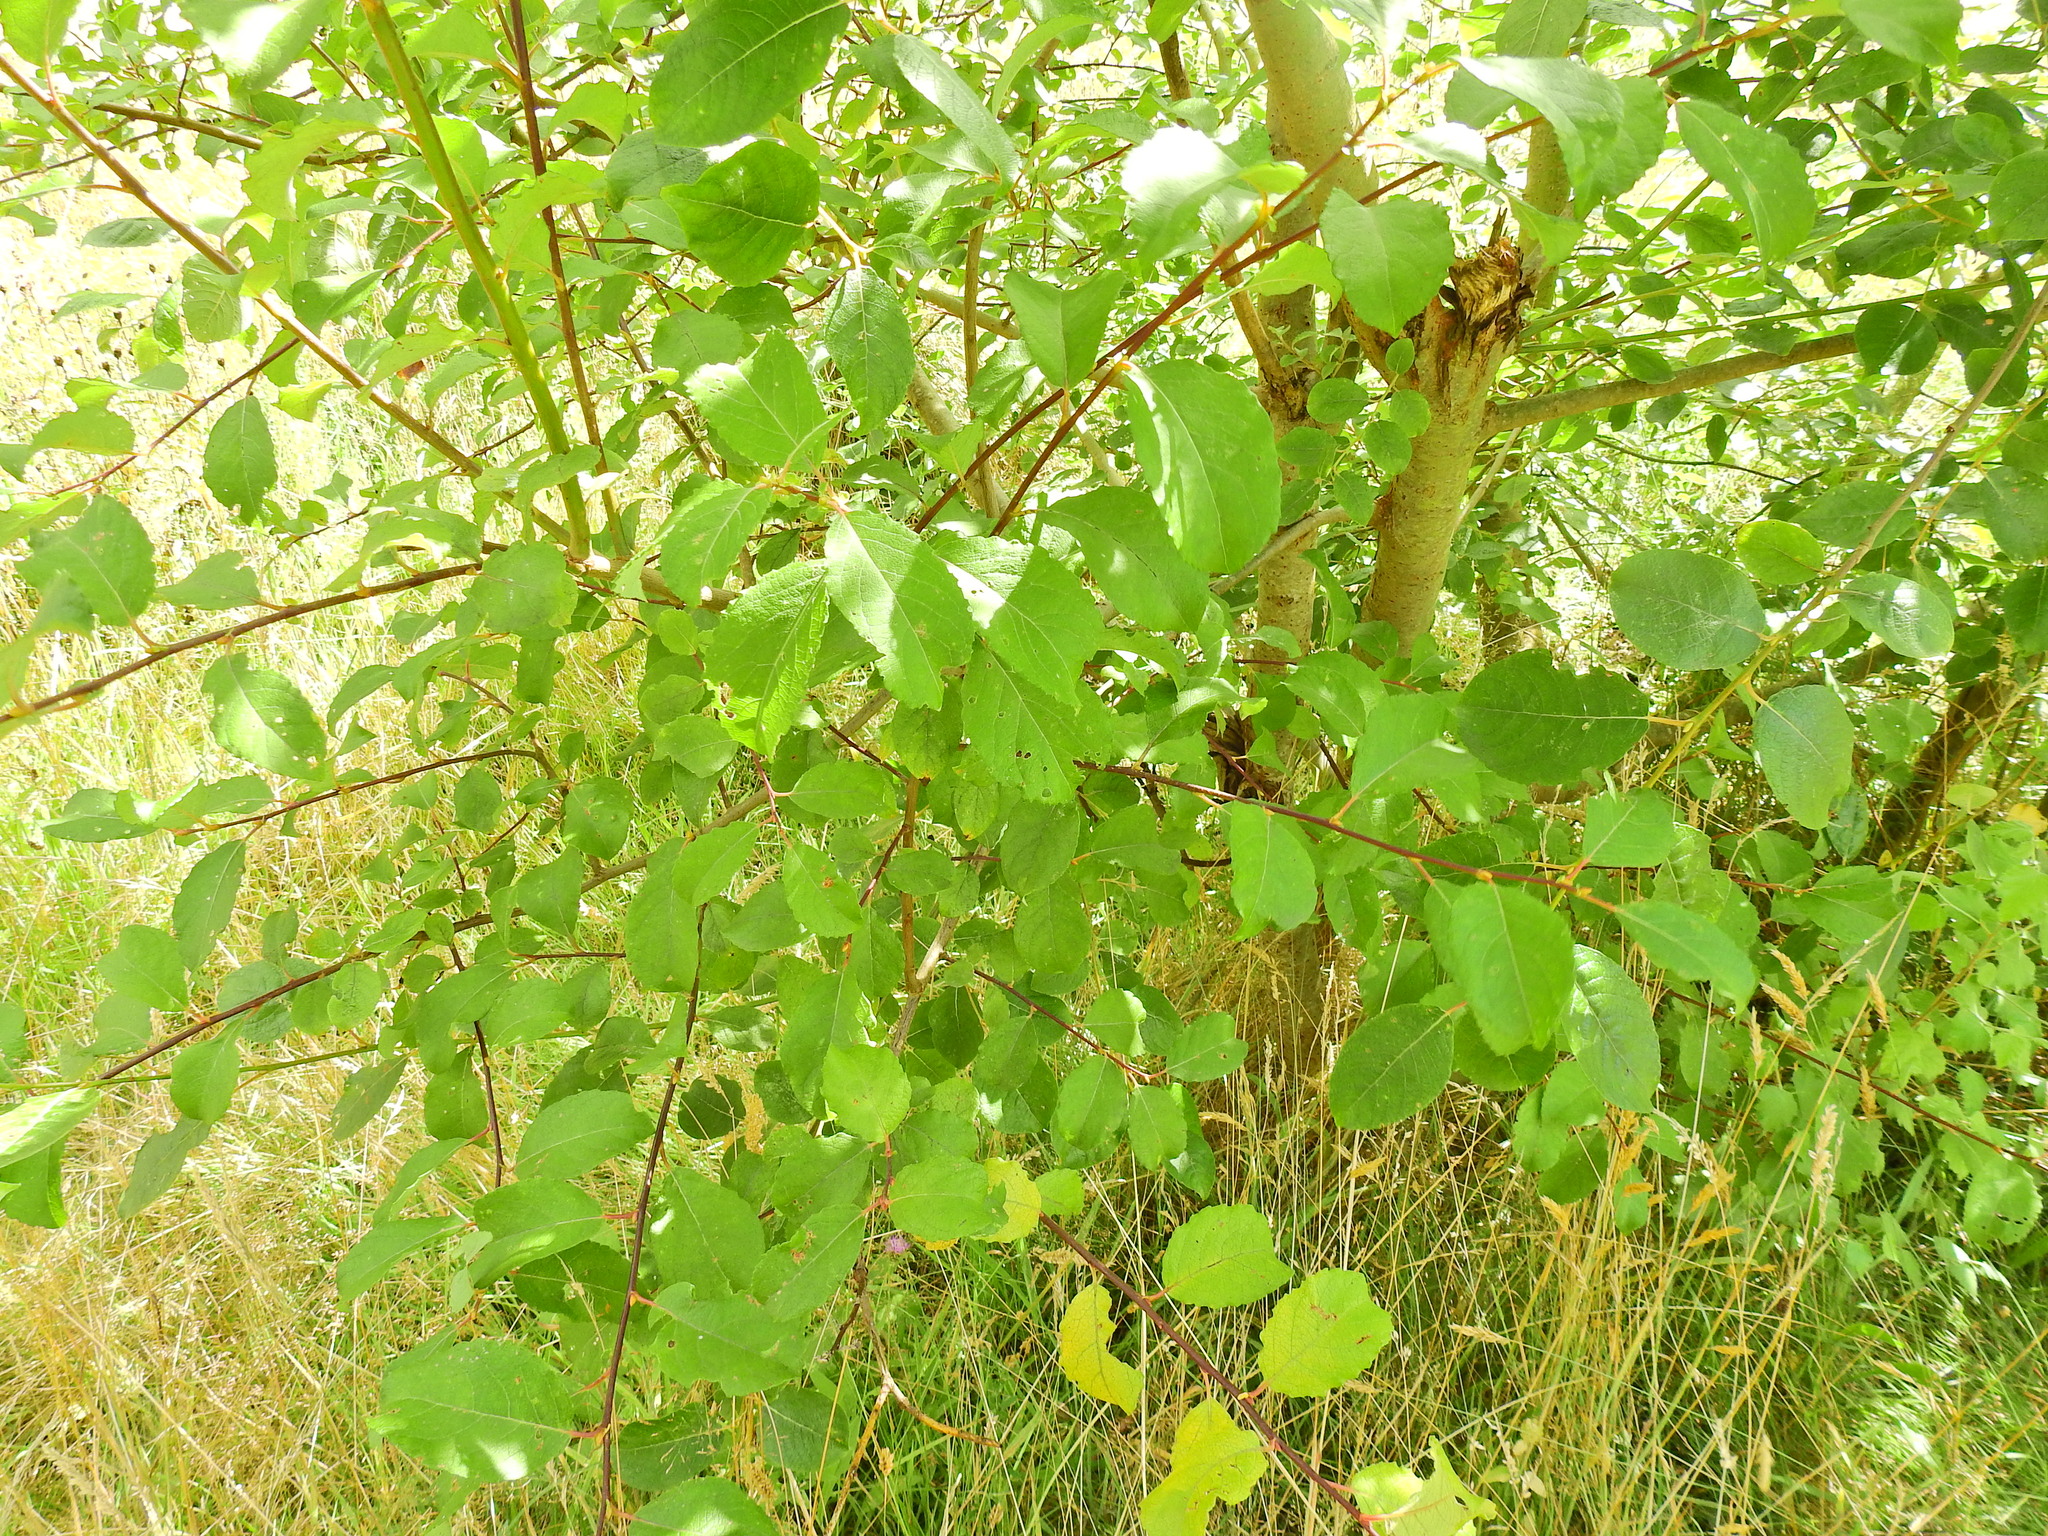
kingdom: Plantae
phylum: Tracheophyta
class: Magnoliopsida
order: Malpighiales
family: Salicaceae
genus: Salix
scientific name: Salix caprea
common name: Goat willow
